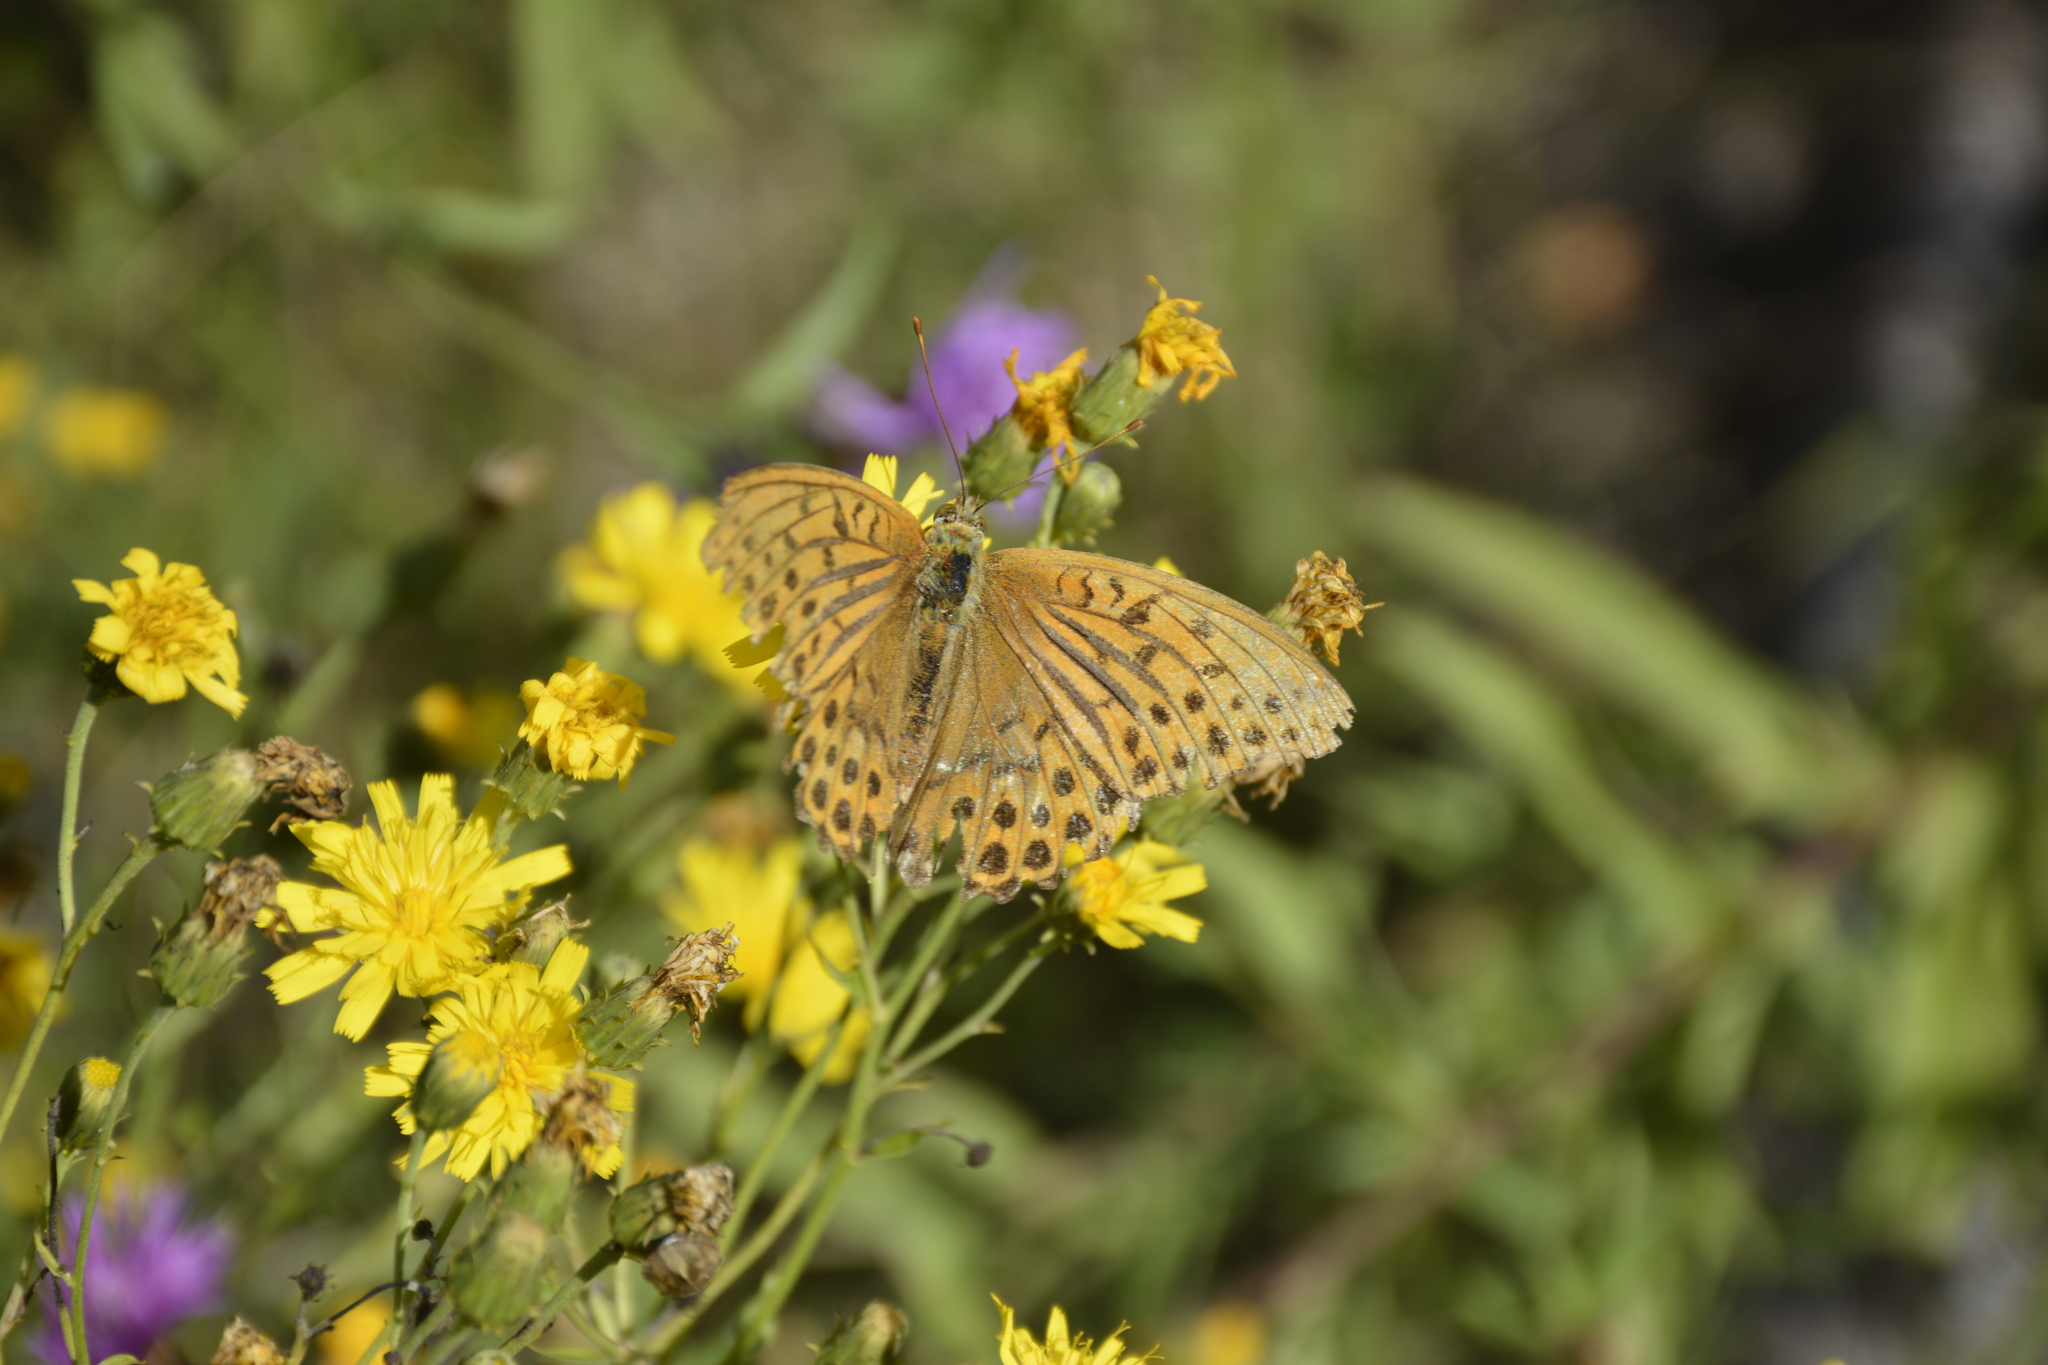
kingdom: Animalia
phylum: Arthropoda
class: Insecta
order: Lepidoptera
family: Nymphalidae
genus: Argynnis
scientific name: Argynnis paphia
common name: Silver-washed fritillary
